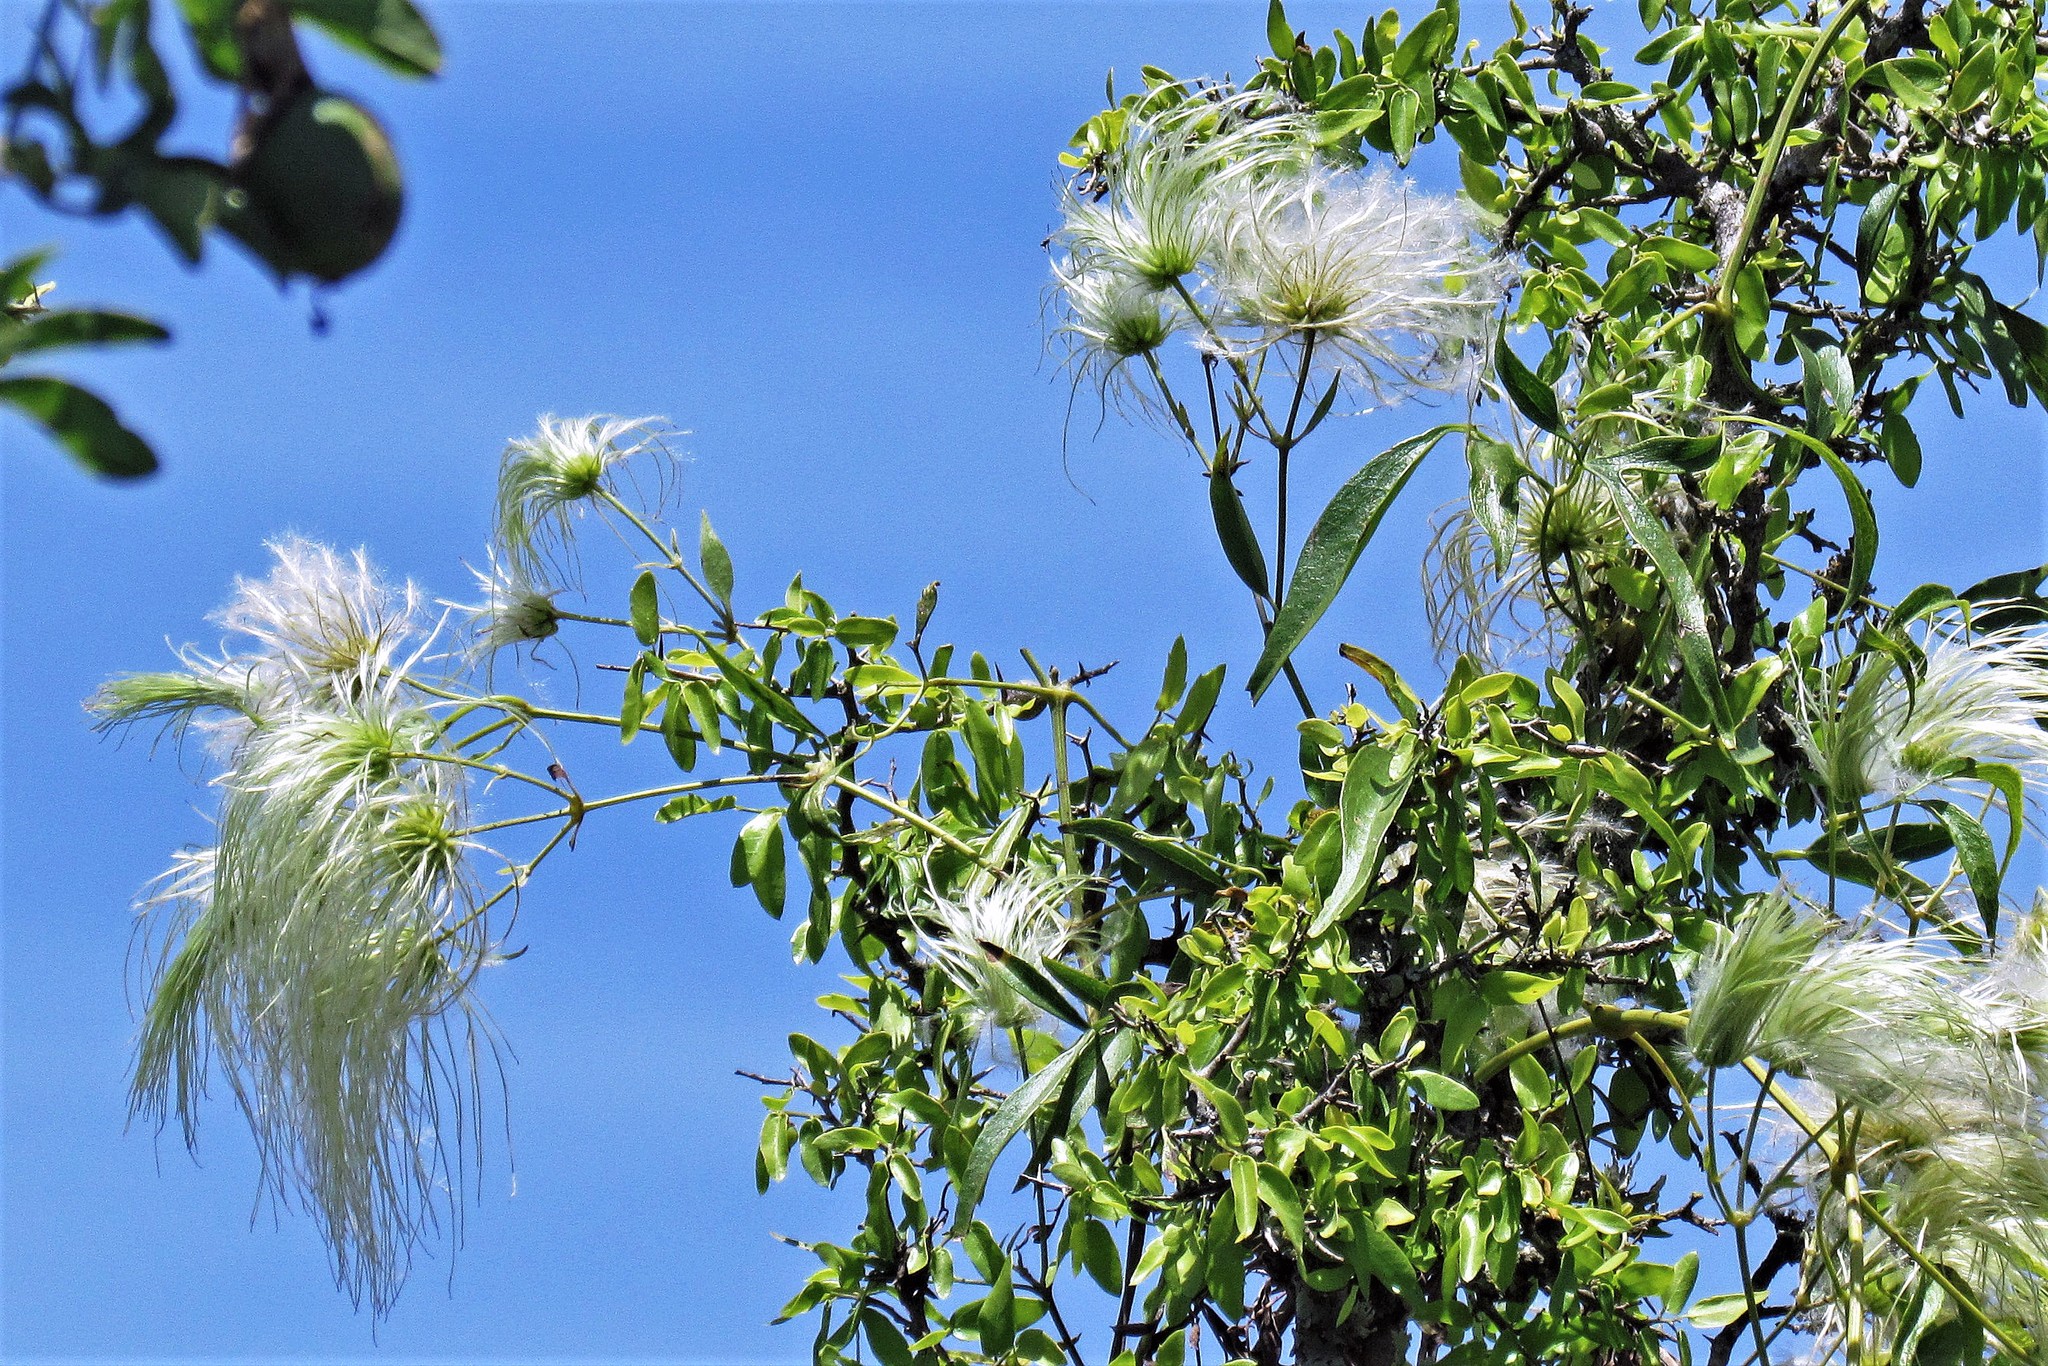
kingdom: Plantae
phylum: Tracheophyta
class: Magnoliopsida
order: Ranunculales
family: Ranunculaceae
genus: Clematis
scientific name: Clematis montevidensis
